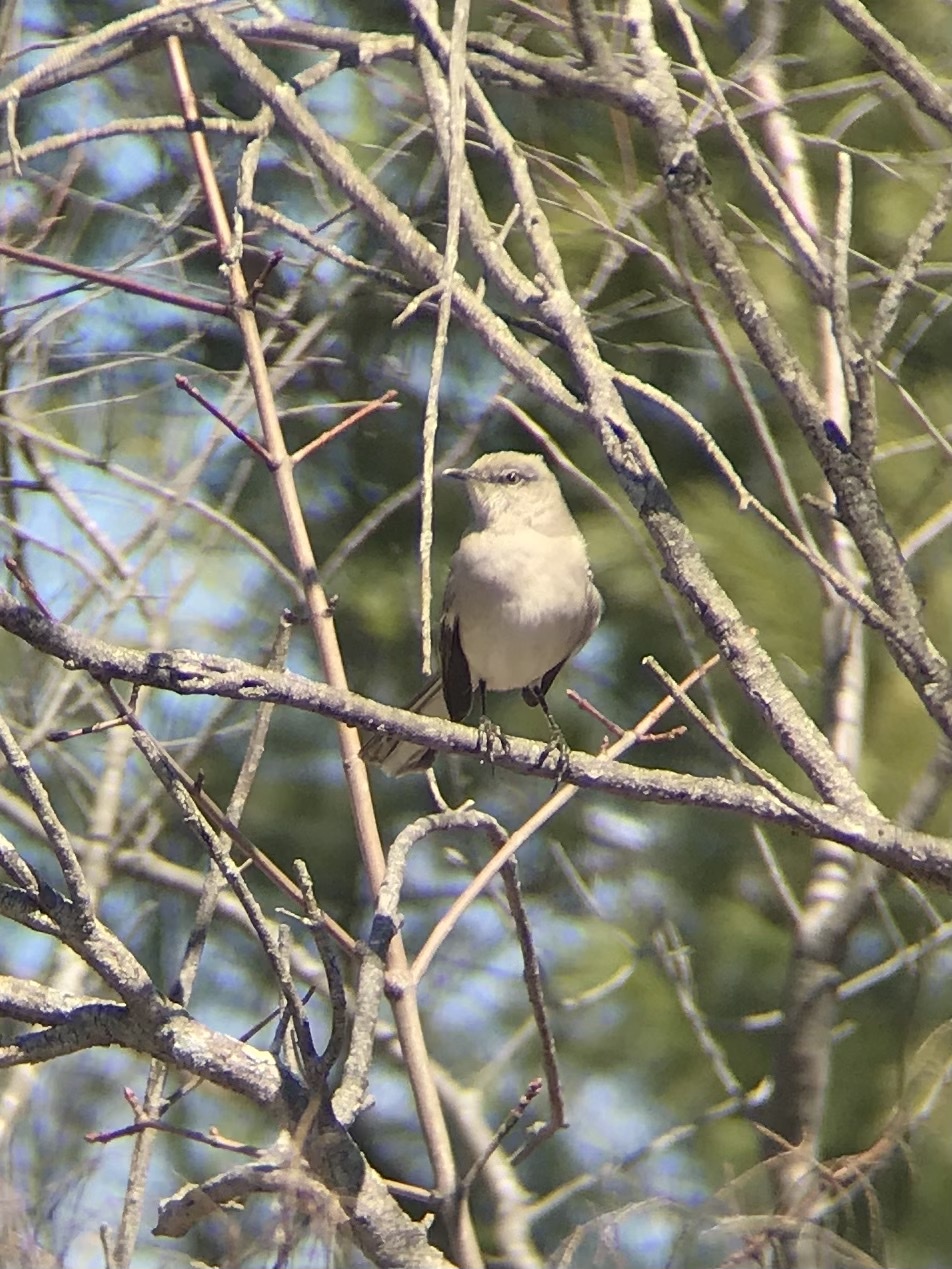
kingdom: Animalia
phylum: Chordata
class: Aves
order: Passeriformes
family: Mimidae
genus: Mimus
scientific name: Mimus polyglottos
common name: Northern mockingbird
